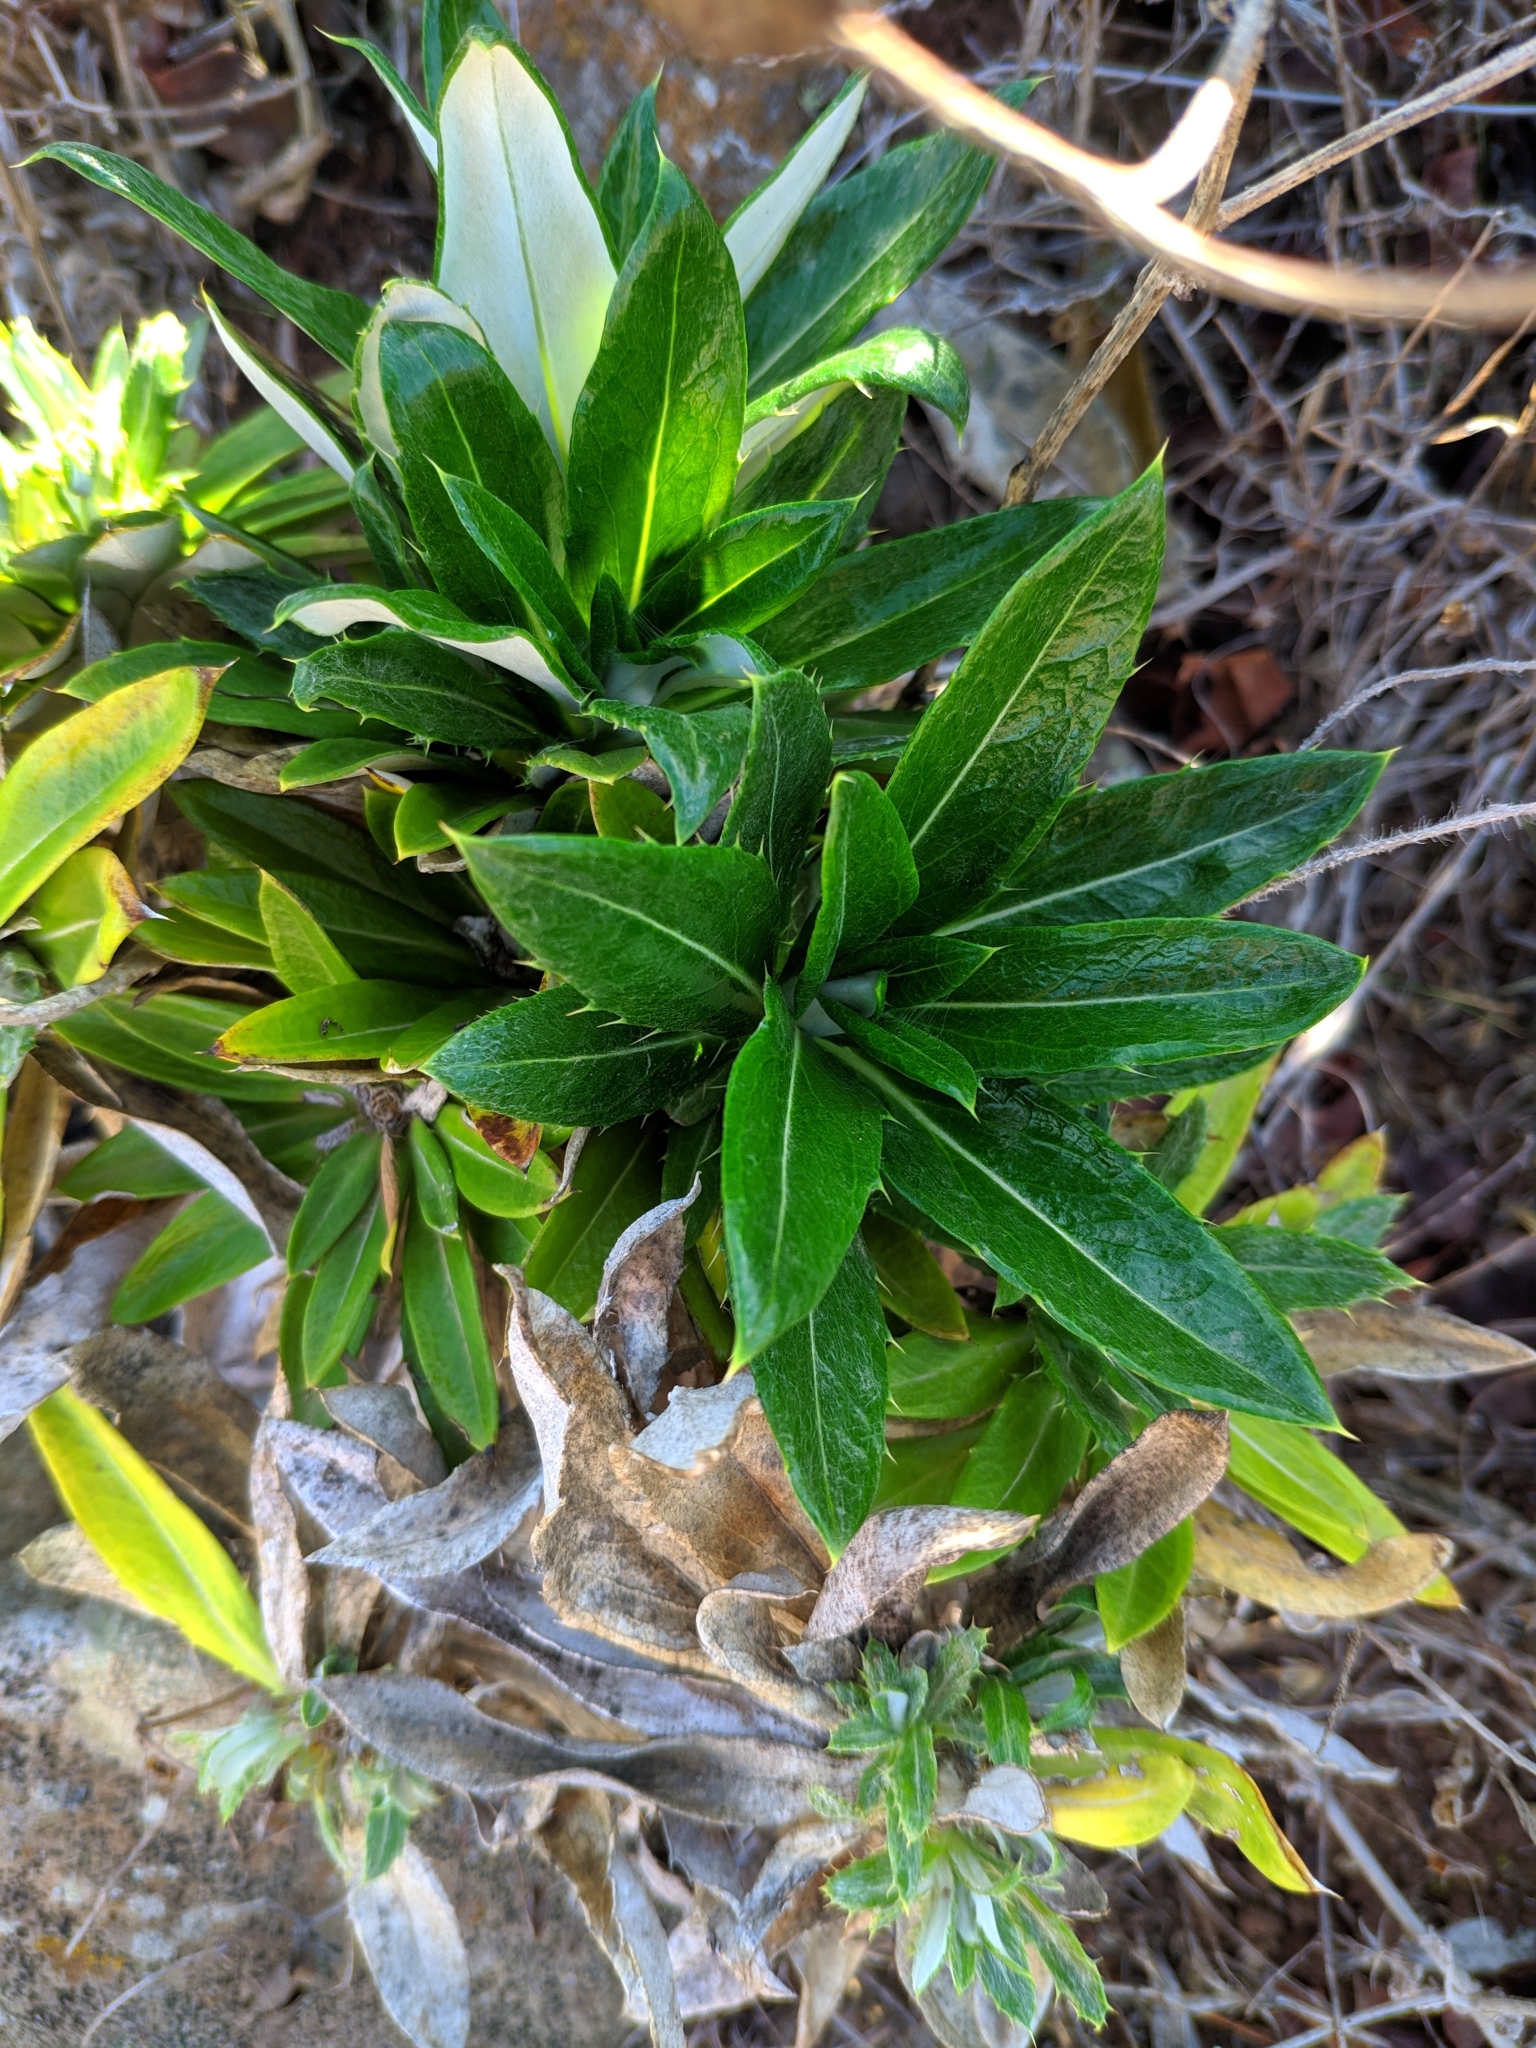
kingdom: Plantae
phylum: Tracheophyta
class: Magnoliopsida
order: Asterales
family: Asteraceae
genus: Carlina
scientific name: Carlina salicifolia
